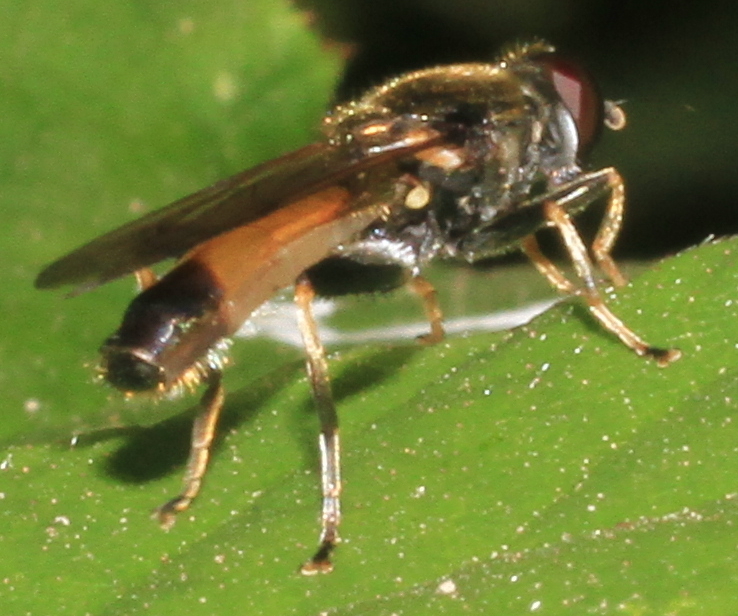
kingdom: Animalia
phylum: Arthropoda
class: Insecta
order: Diptera
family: Syrphidae
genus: Xylota
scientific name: Xylota segnis
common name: Brown-toed forest fly
